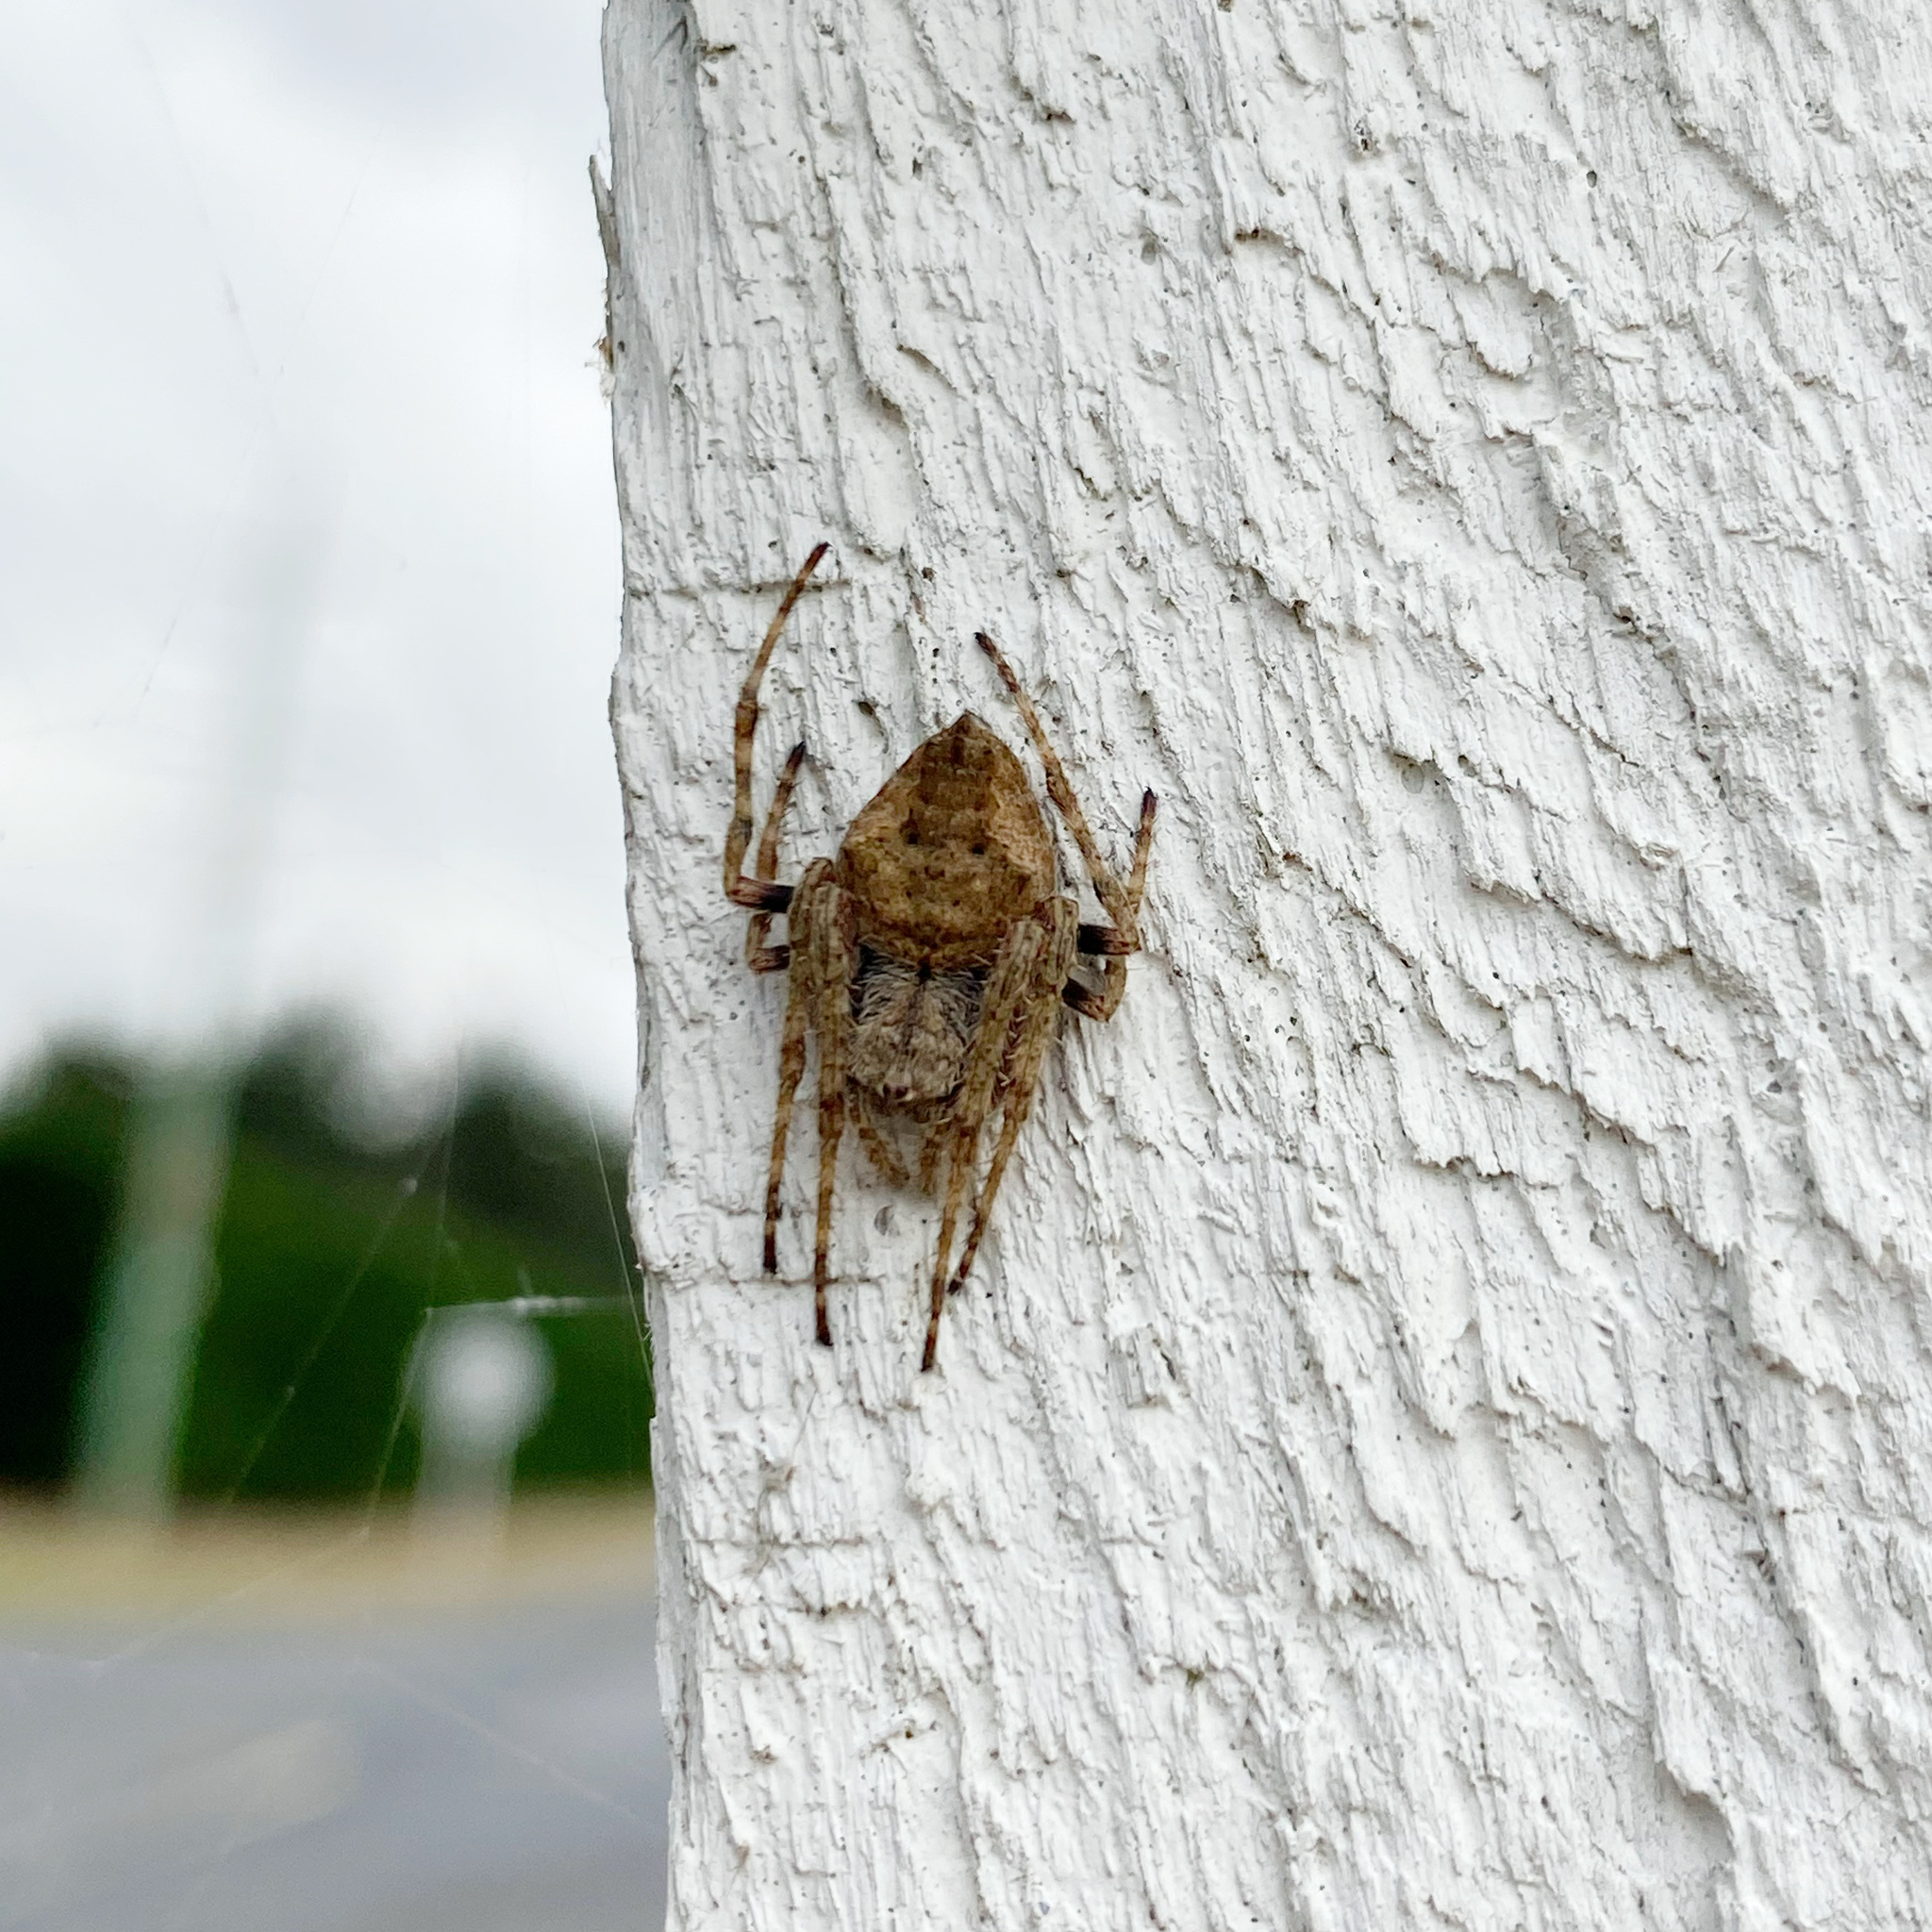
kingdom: Animalia
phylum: Arthropoda
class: Arachnida
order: Araneae
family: Araneidae
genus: Eriophora
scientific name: Eriophora pustulosa
